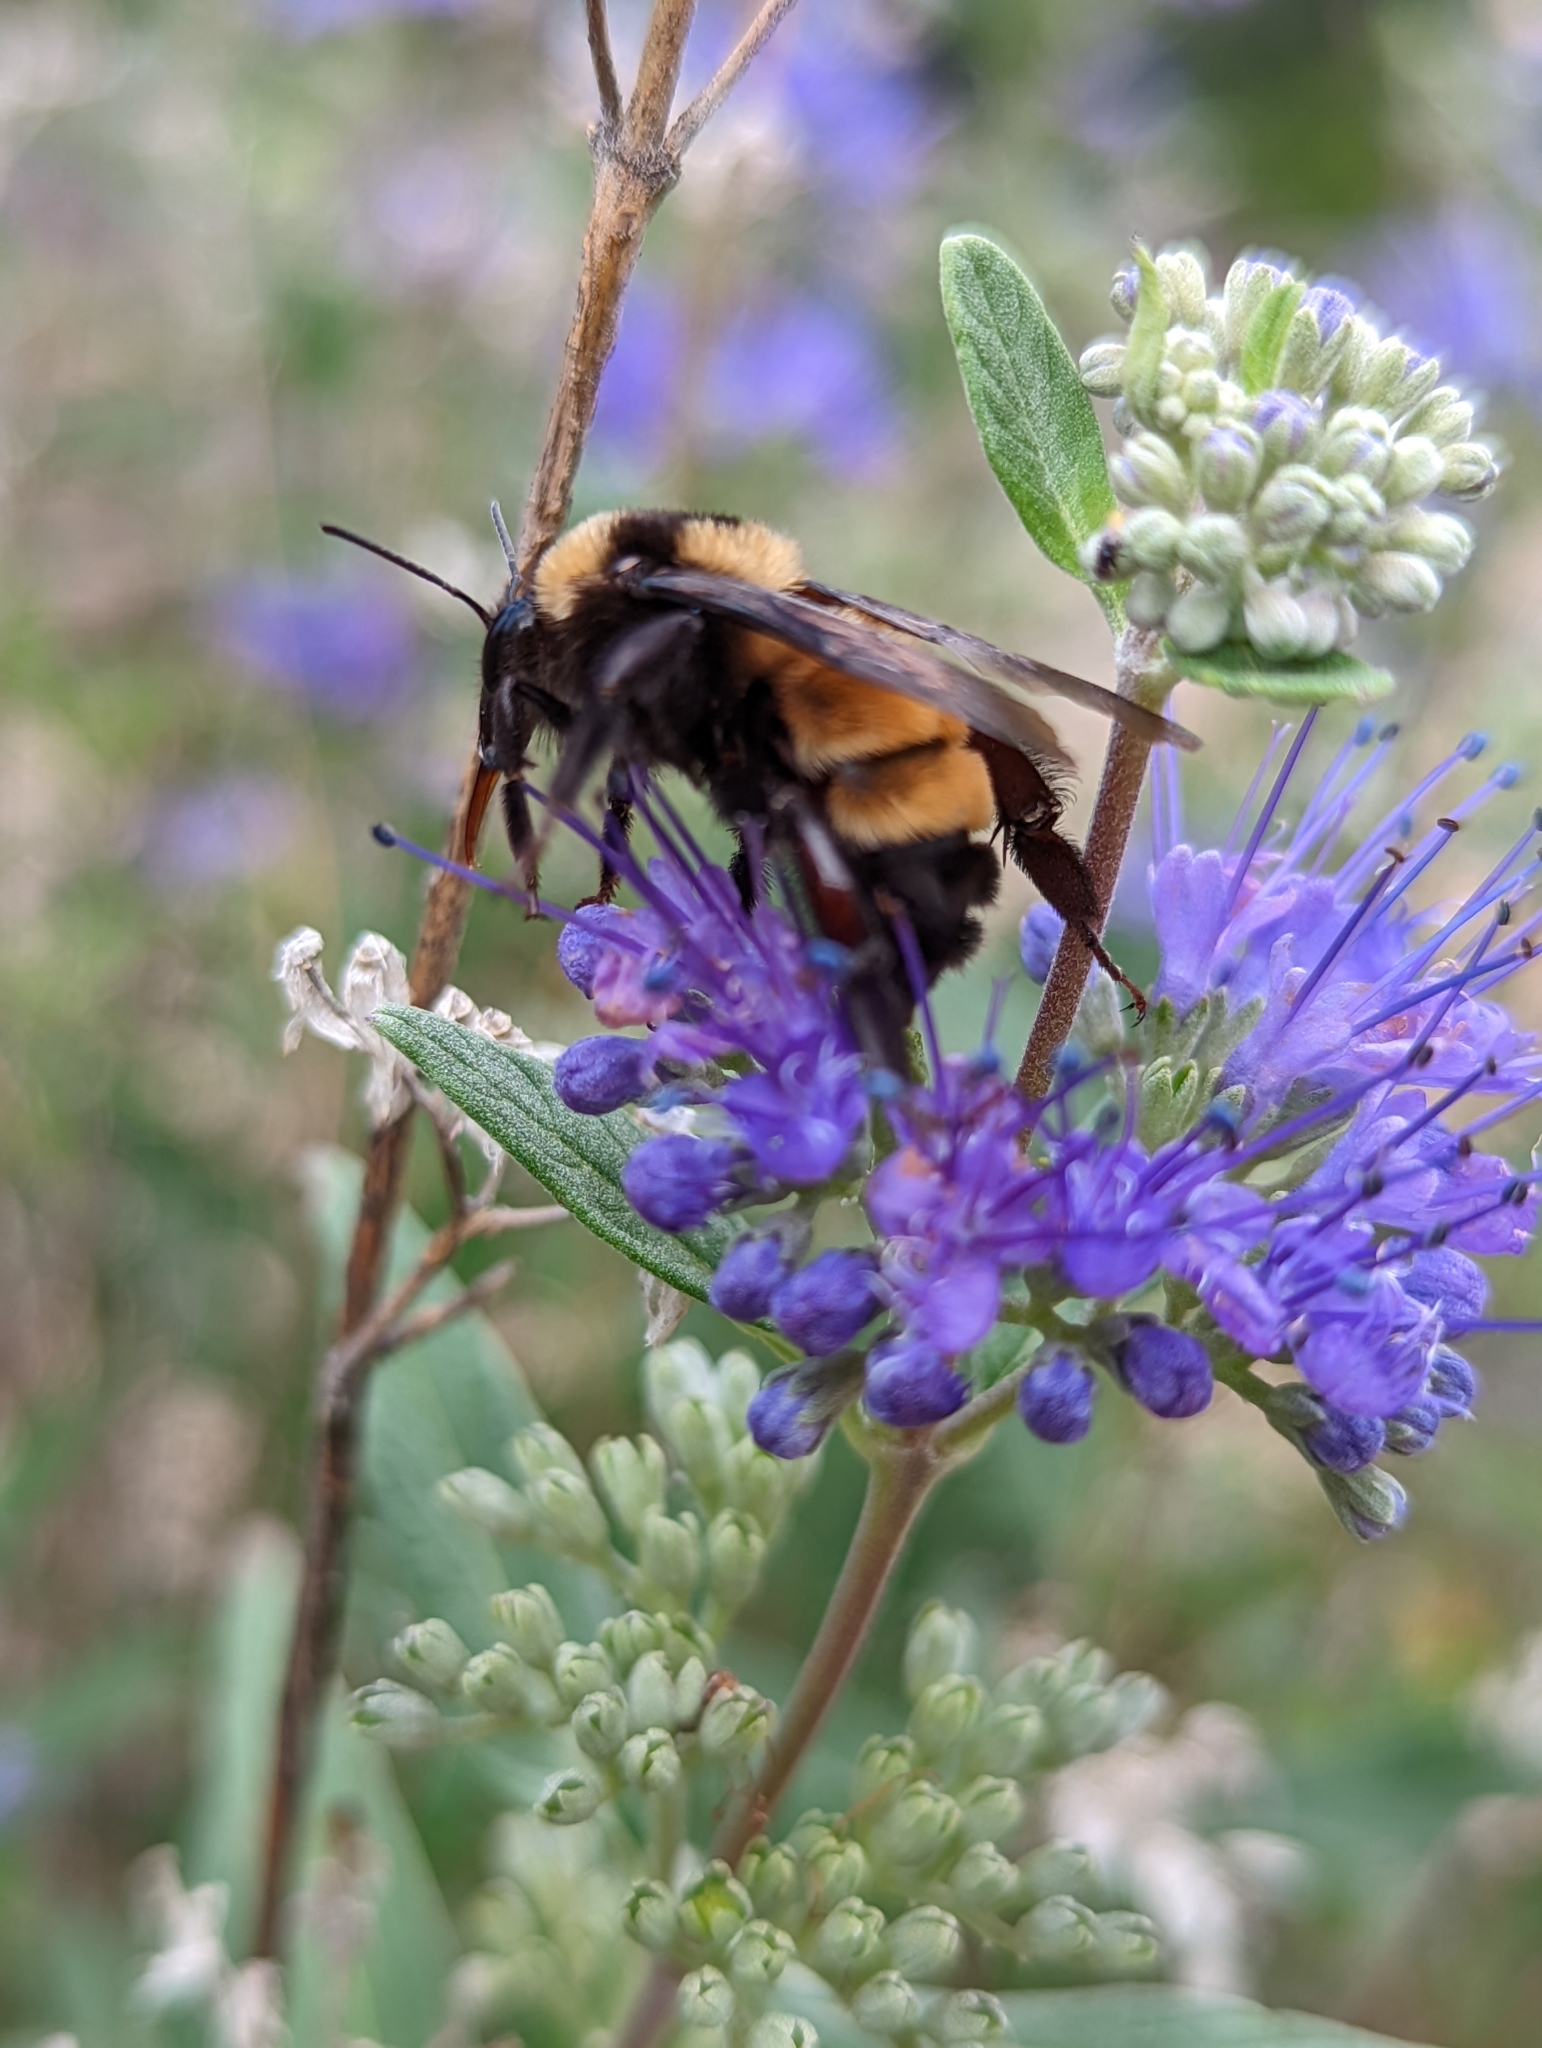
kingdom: Animalia
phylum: Arthropoda
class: Insecta
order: Hymenoptera
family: Apidae
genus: Bombus
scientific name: Bombus sonorus
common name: Sonoran bumble bee
